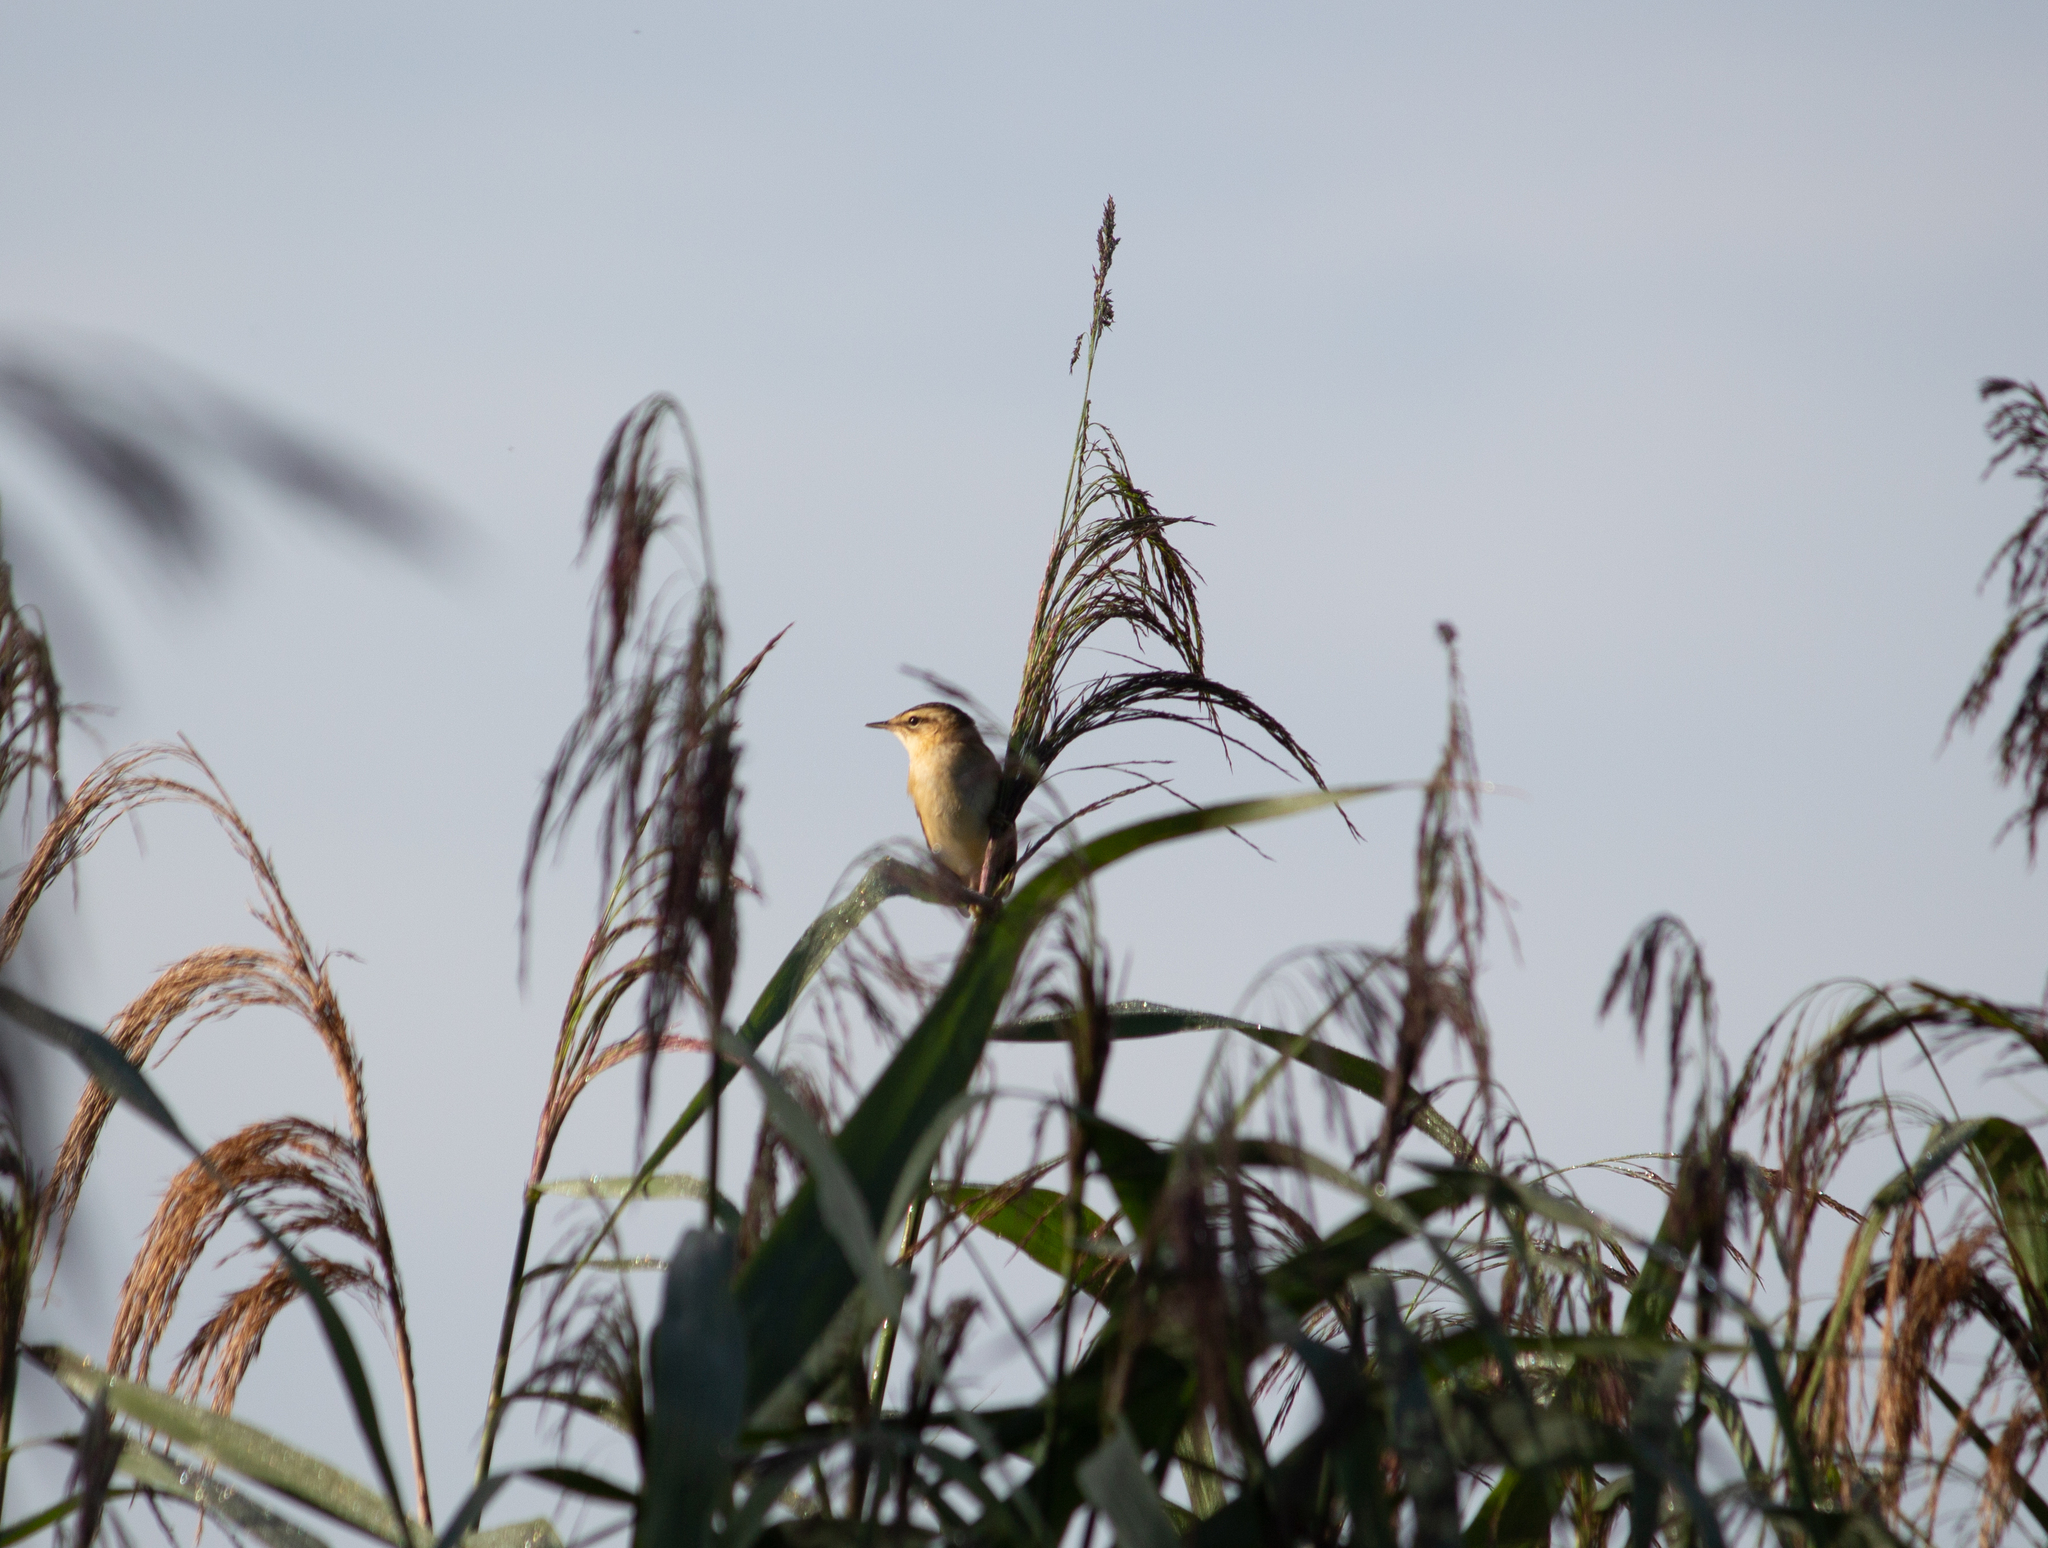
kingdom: Animalia
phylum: Chordata
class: Aves
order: Passeriformes
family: Acrocephalidae
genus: Acrocephalus
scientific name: Acrocephalus schoenobaenus
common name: Sedge warbler
